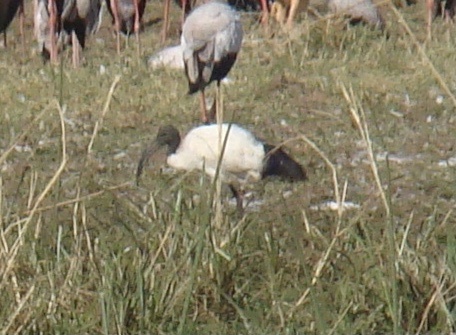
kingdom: Animalia
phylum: Chordata
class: Aves
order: Pelecaniformes
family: Threskiornithidae
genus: Threskiornis
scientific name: Threskiornis aethiopicus
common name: Sacred ibis
